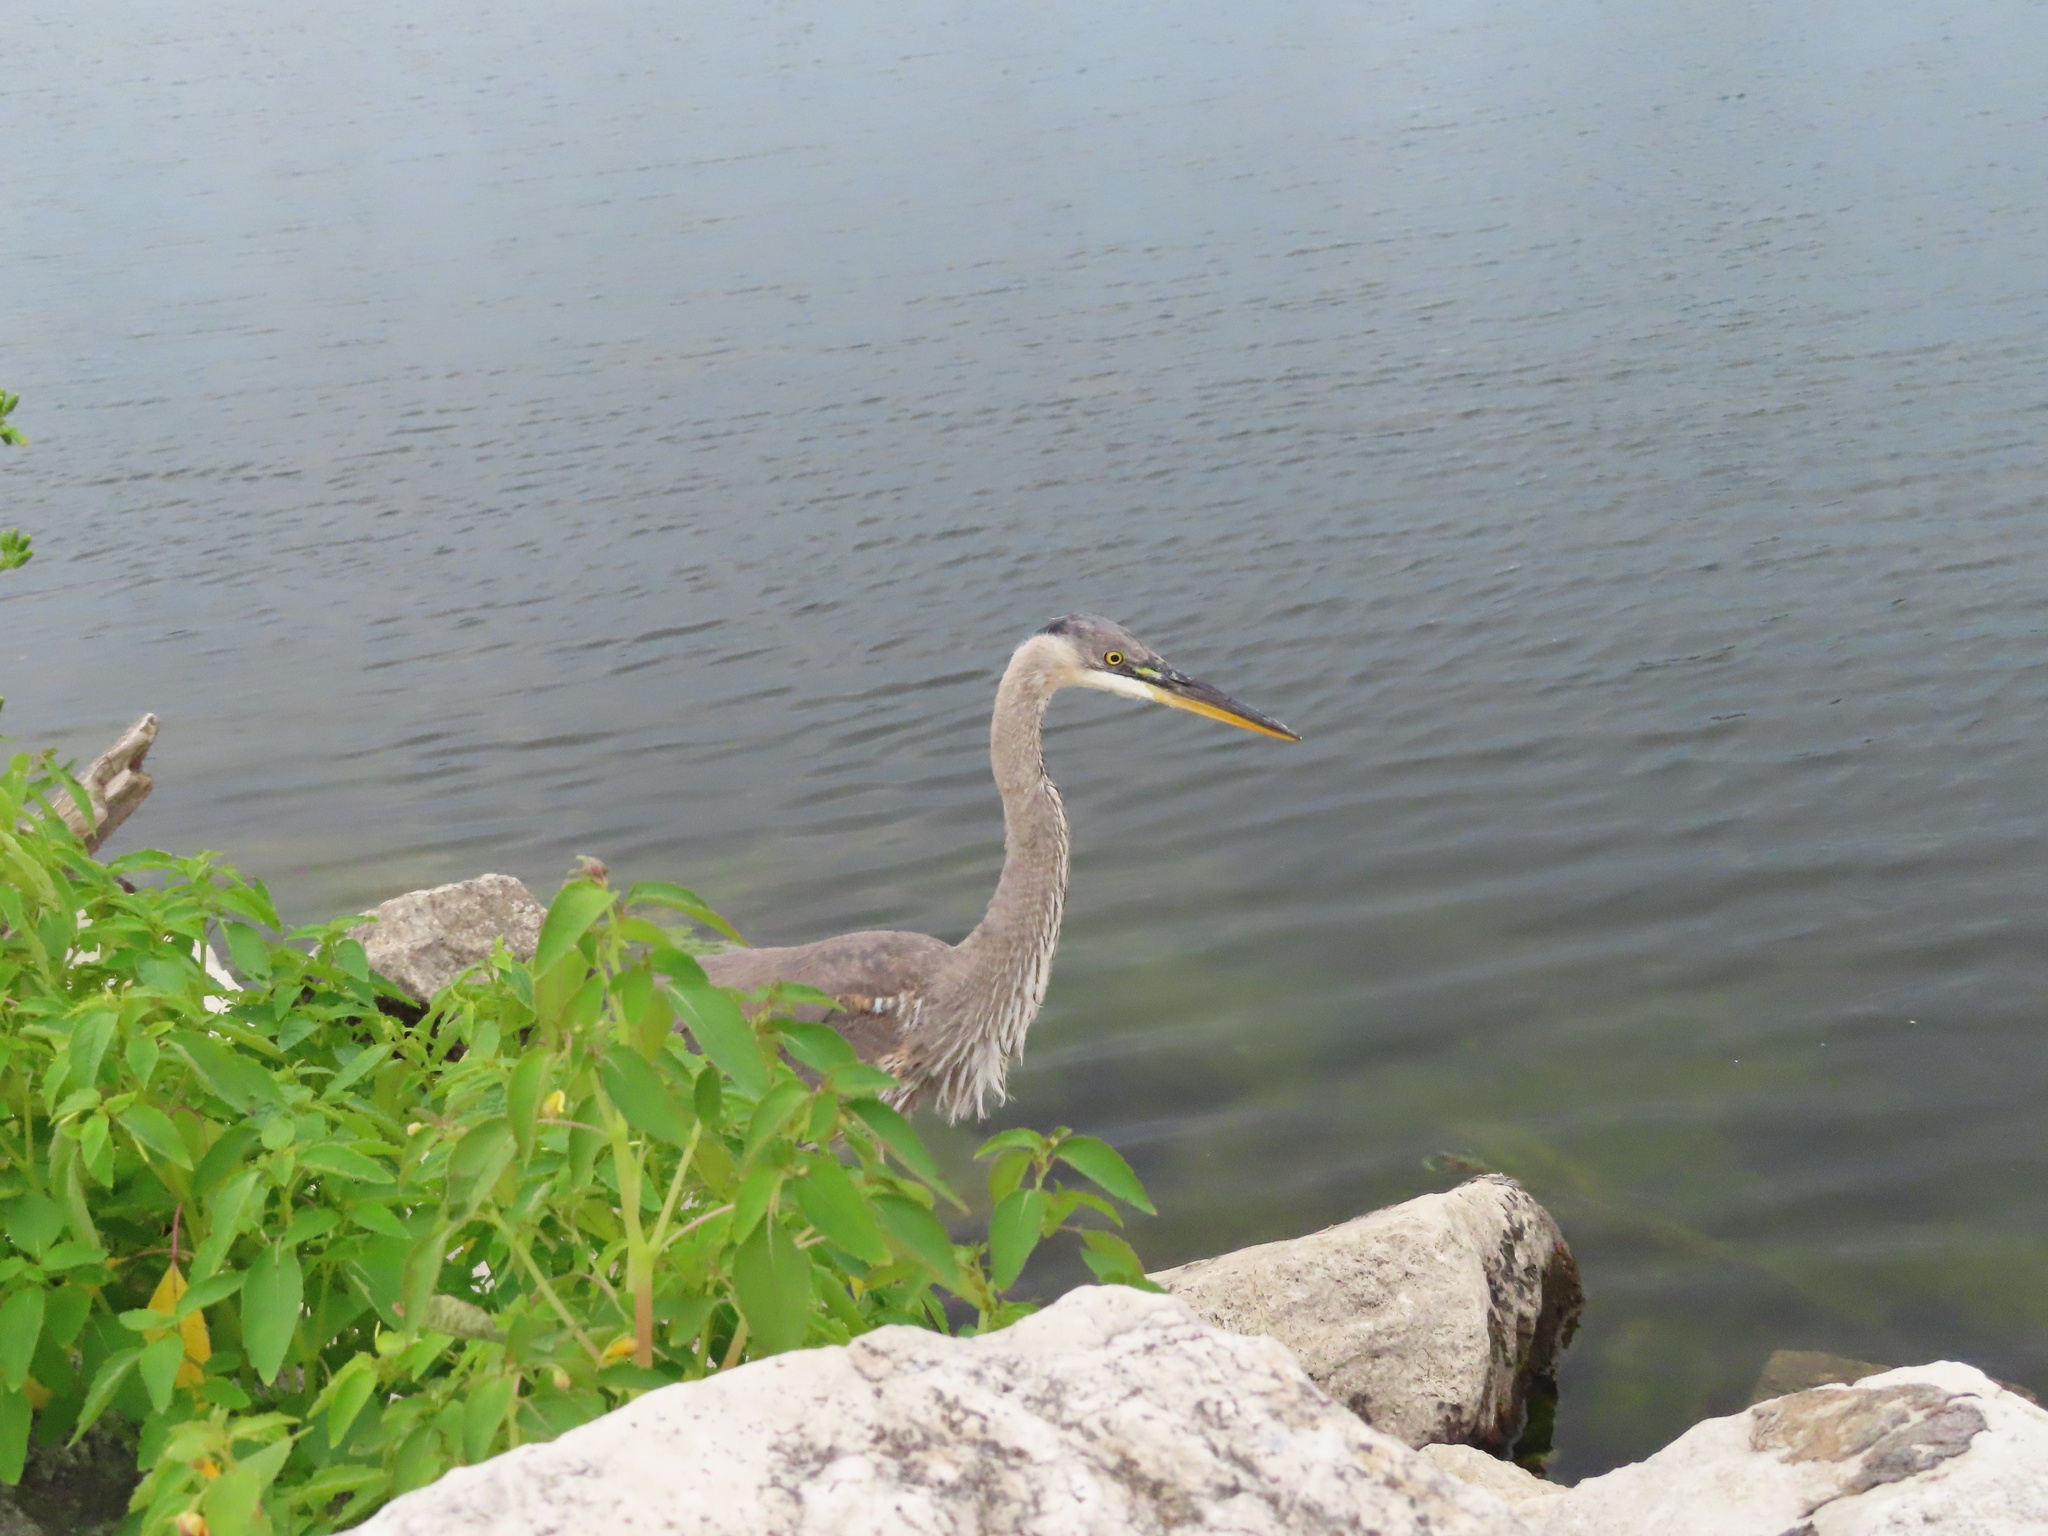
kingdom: Animalia
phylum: Chordata
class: Aves
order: Pelecaniformes
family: Ardeidae
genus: Ardea
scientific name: Ardea herodias
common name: Great blue heron
